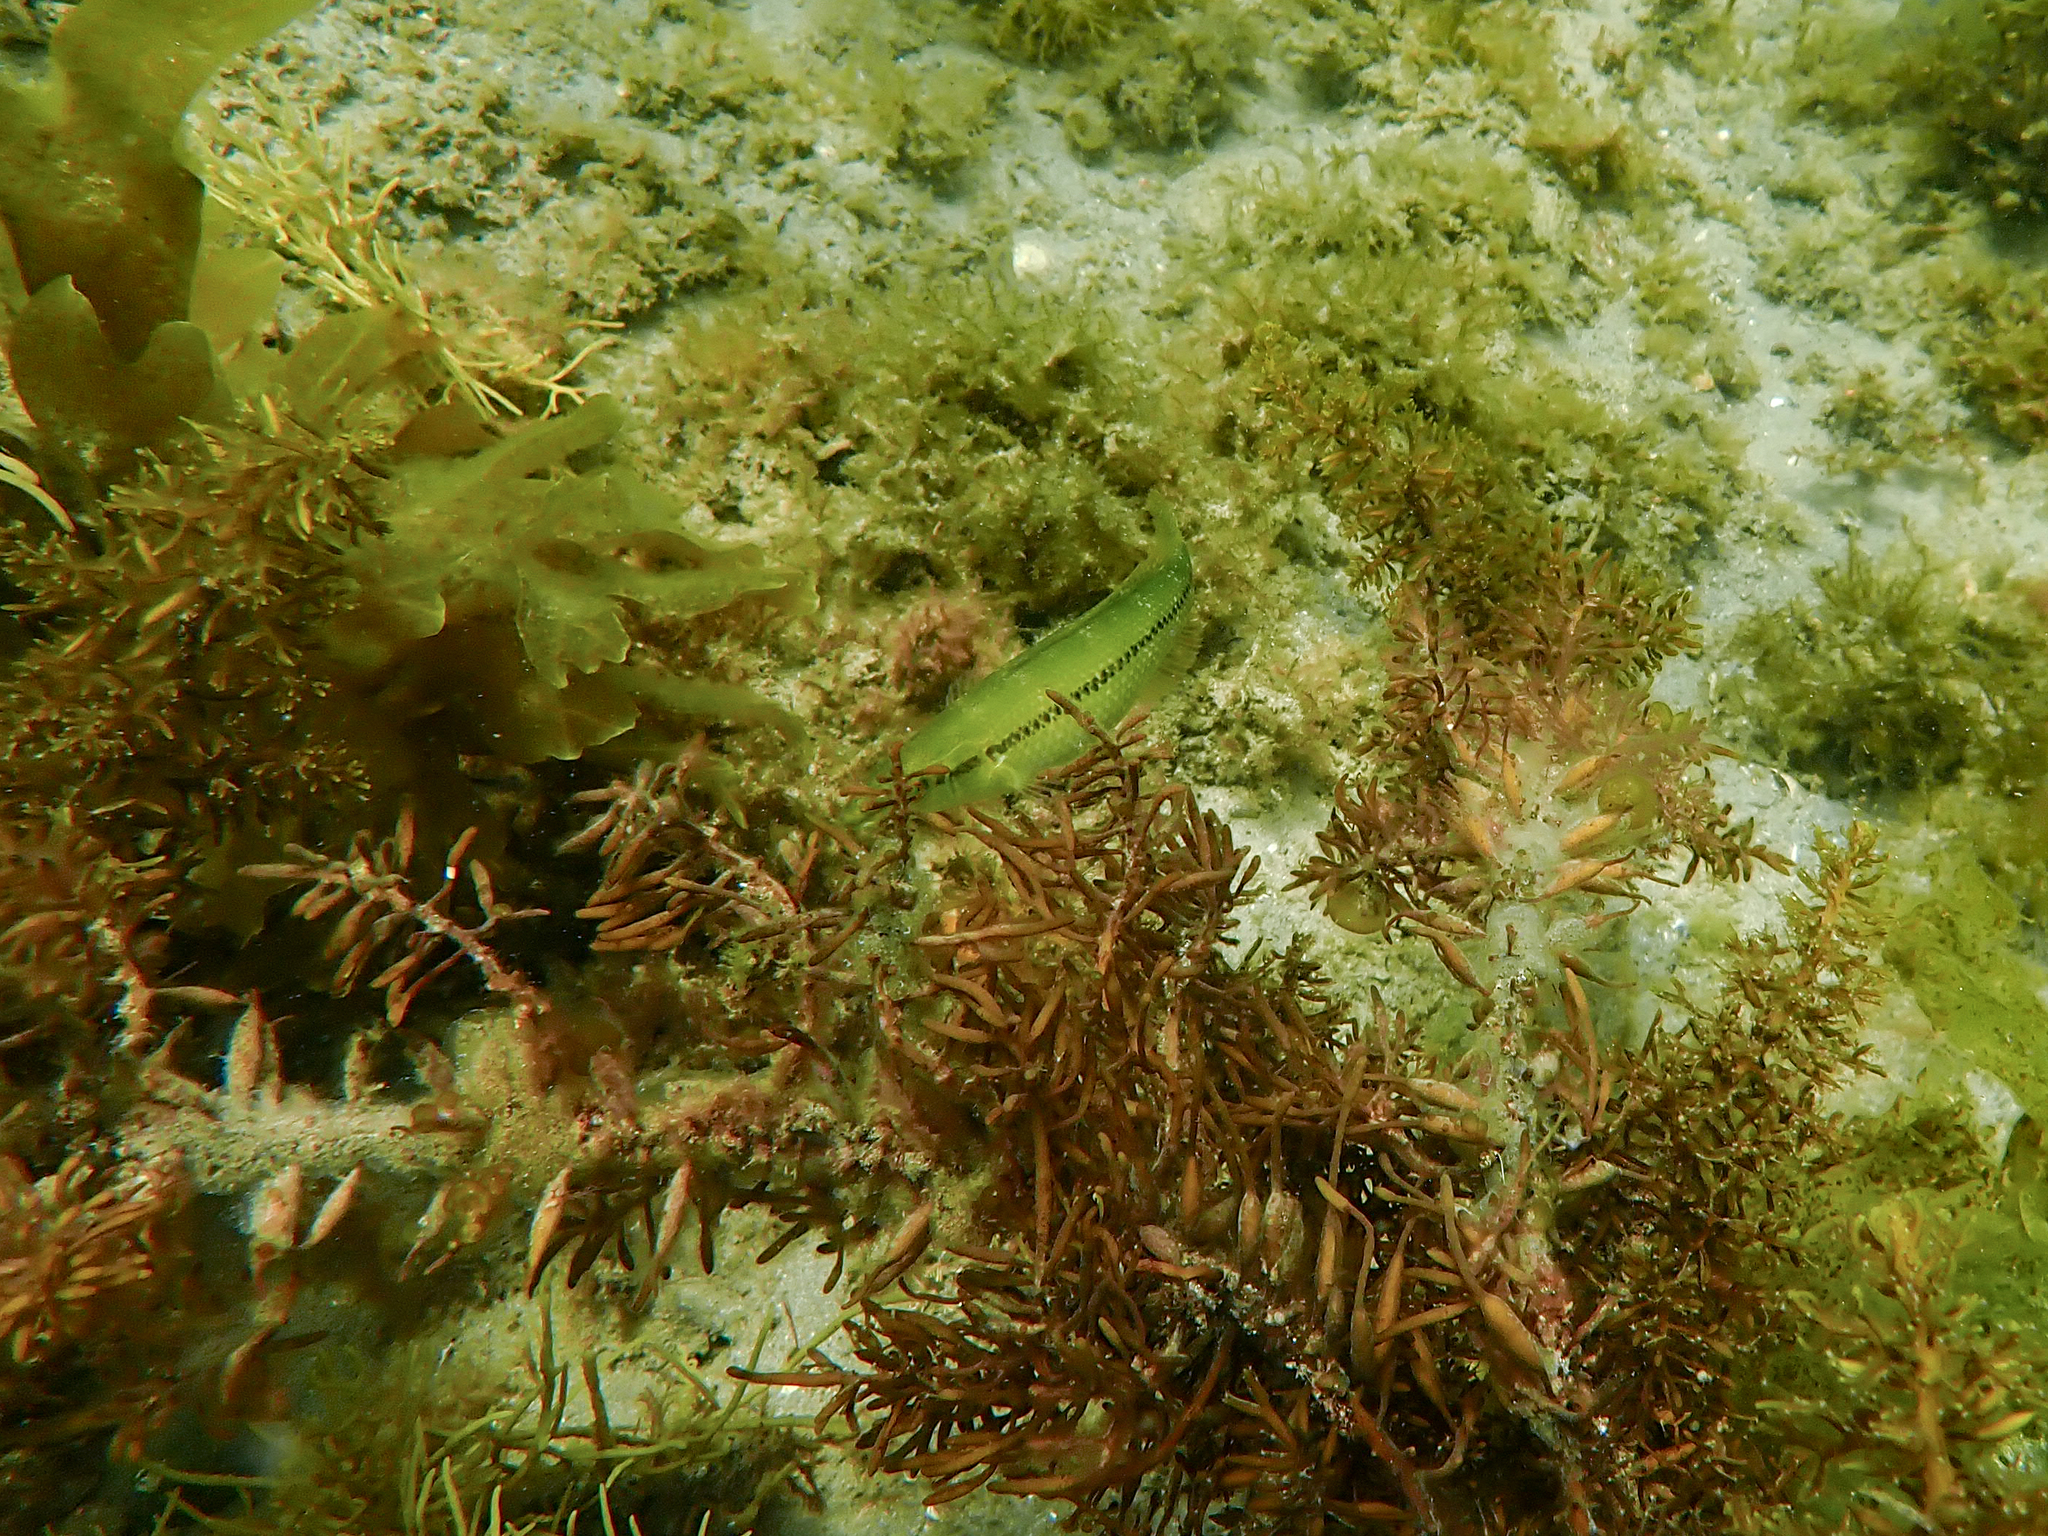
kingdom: Animalia
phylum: Chordata
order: Perciformes
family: Odacidae
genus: Neoodax
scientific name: Neoodax balteatus
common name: Ground mullet
